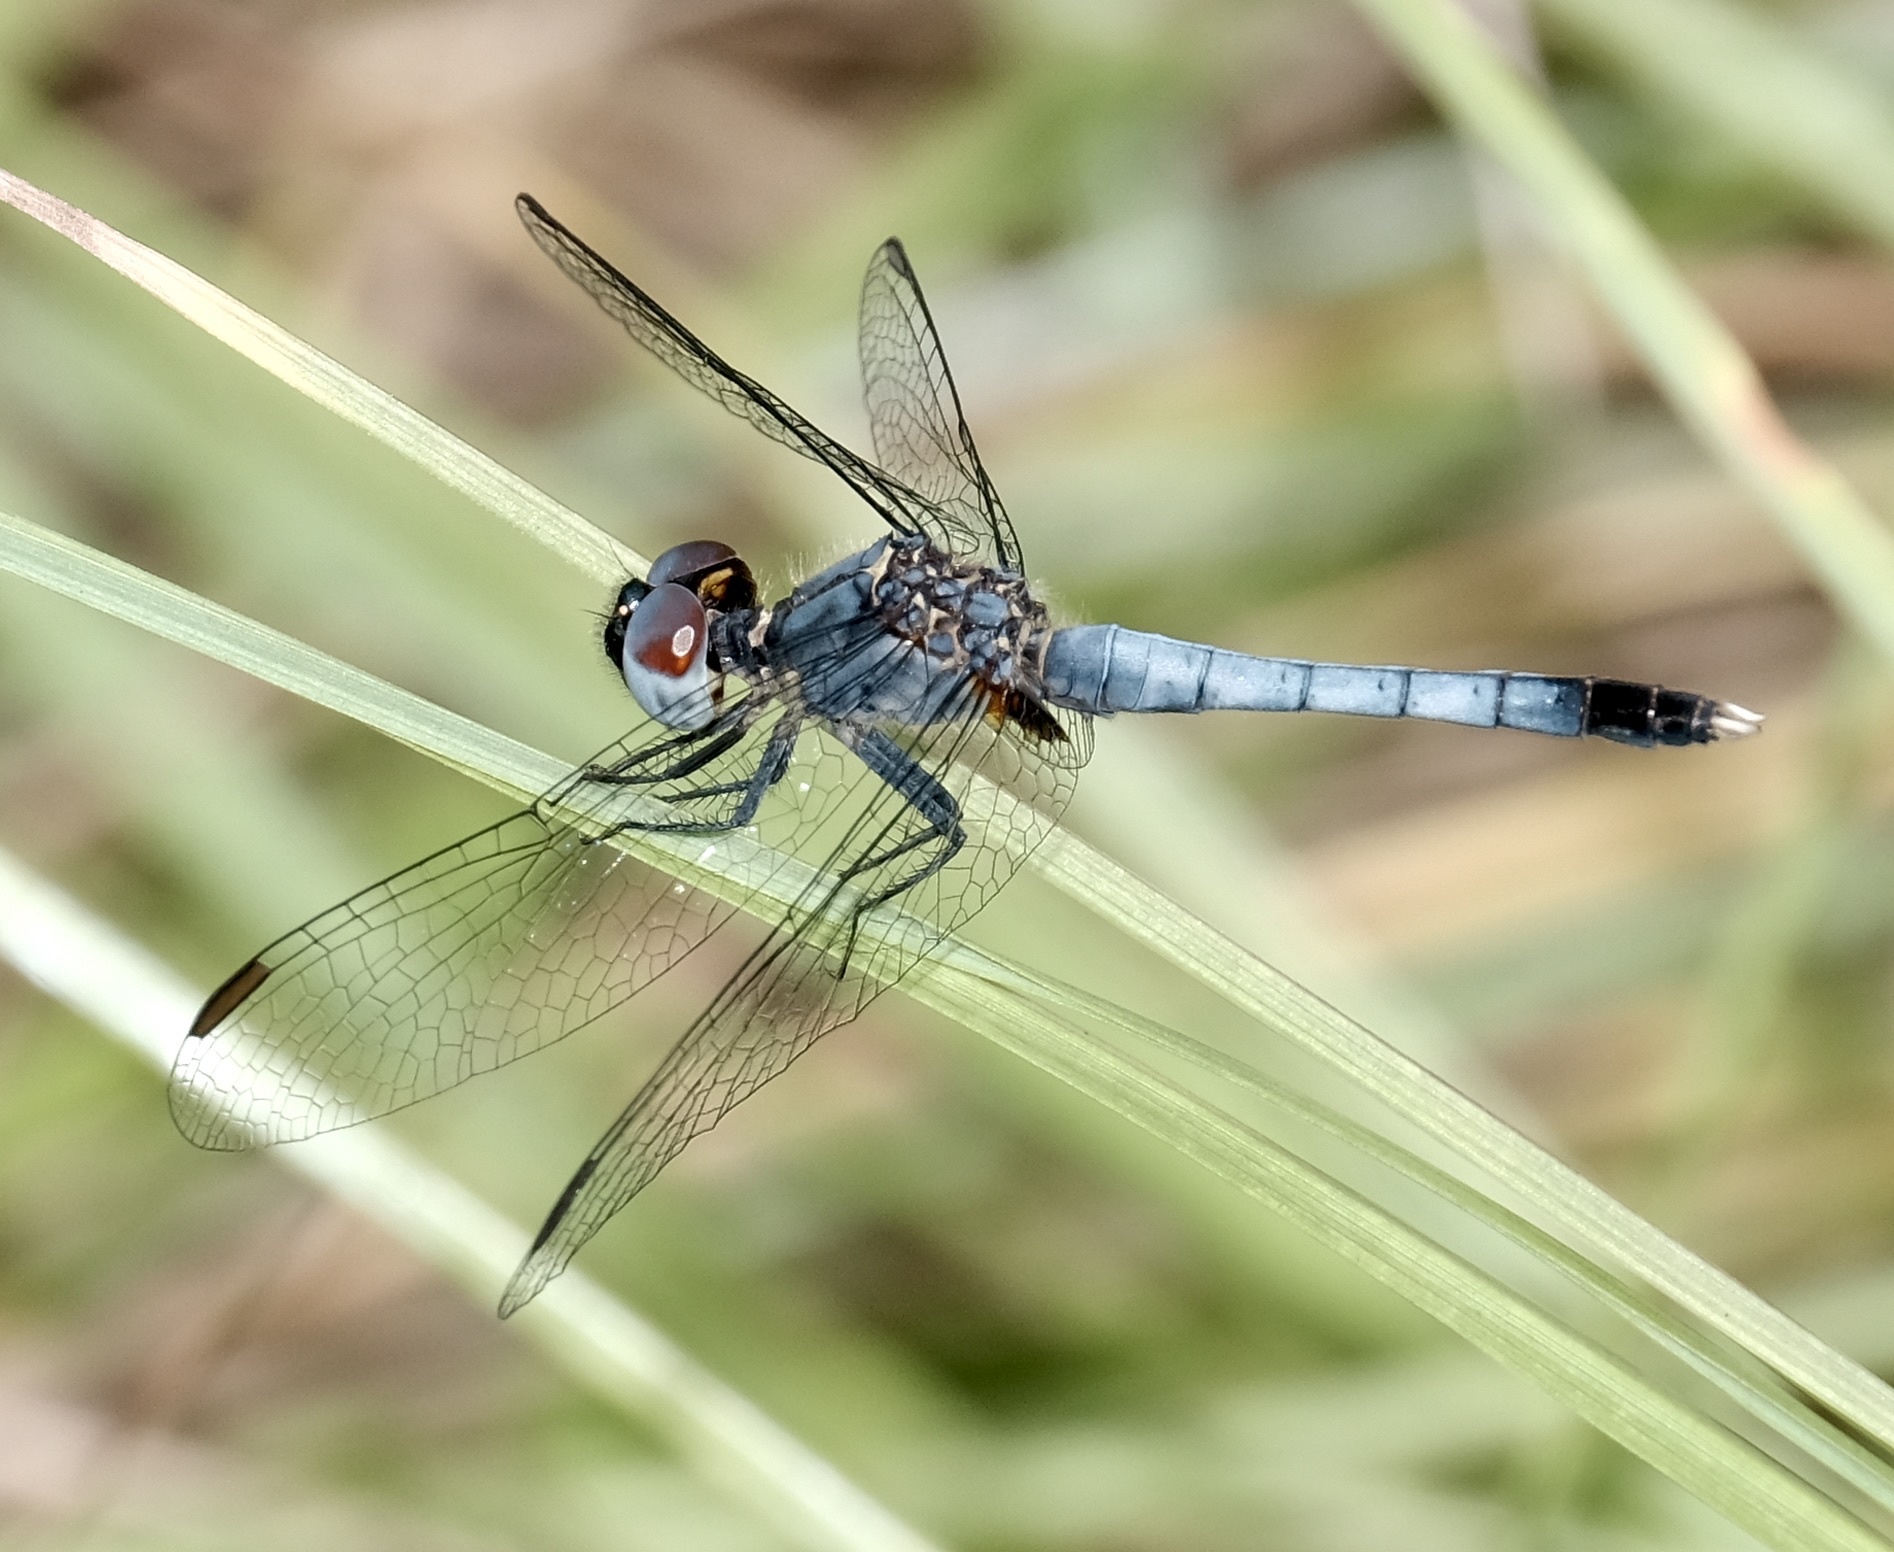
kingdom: Animalia
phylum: Arthropoda
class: Insecta
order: Odonata
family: Libellulidae
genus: Erythrodiplax
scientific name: Erythrodiplax minuscula
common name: Little blue dragonlet
